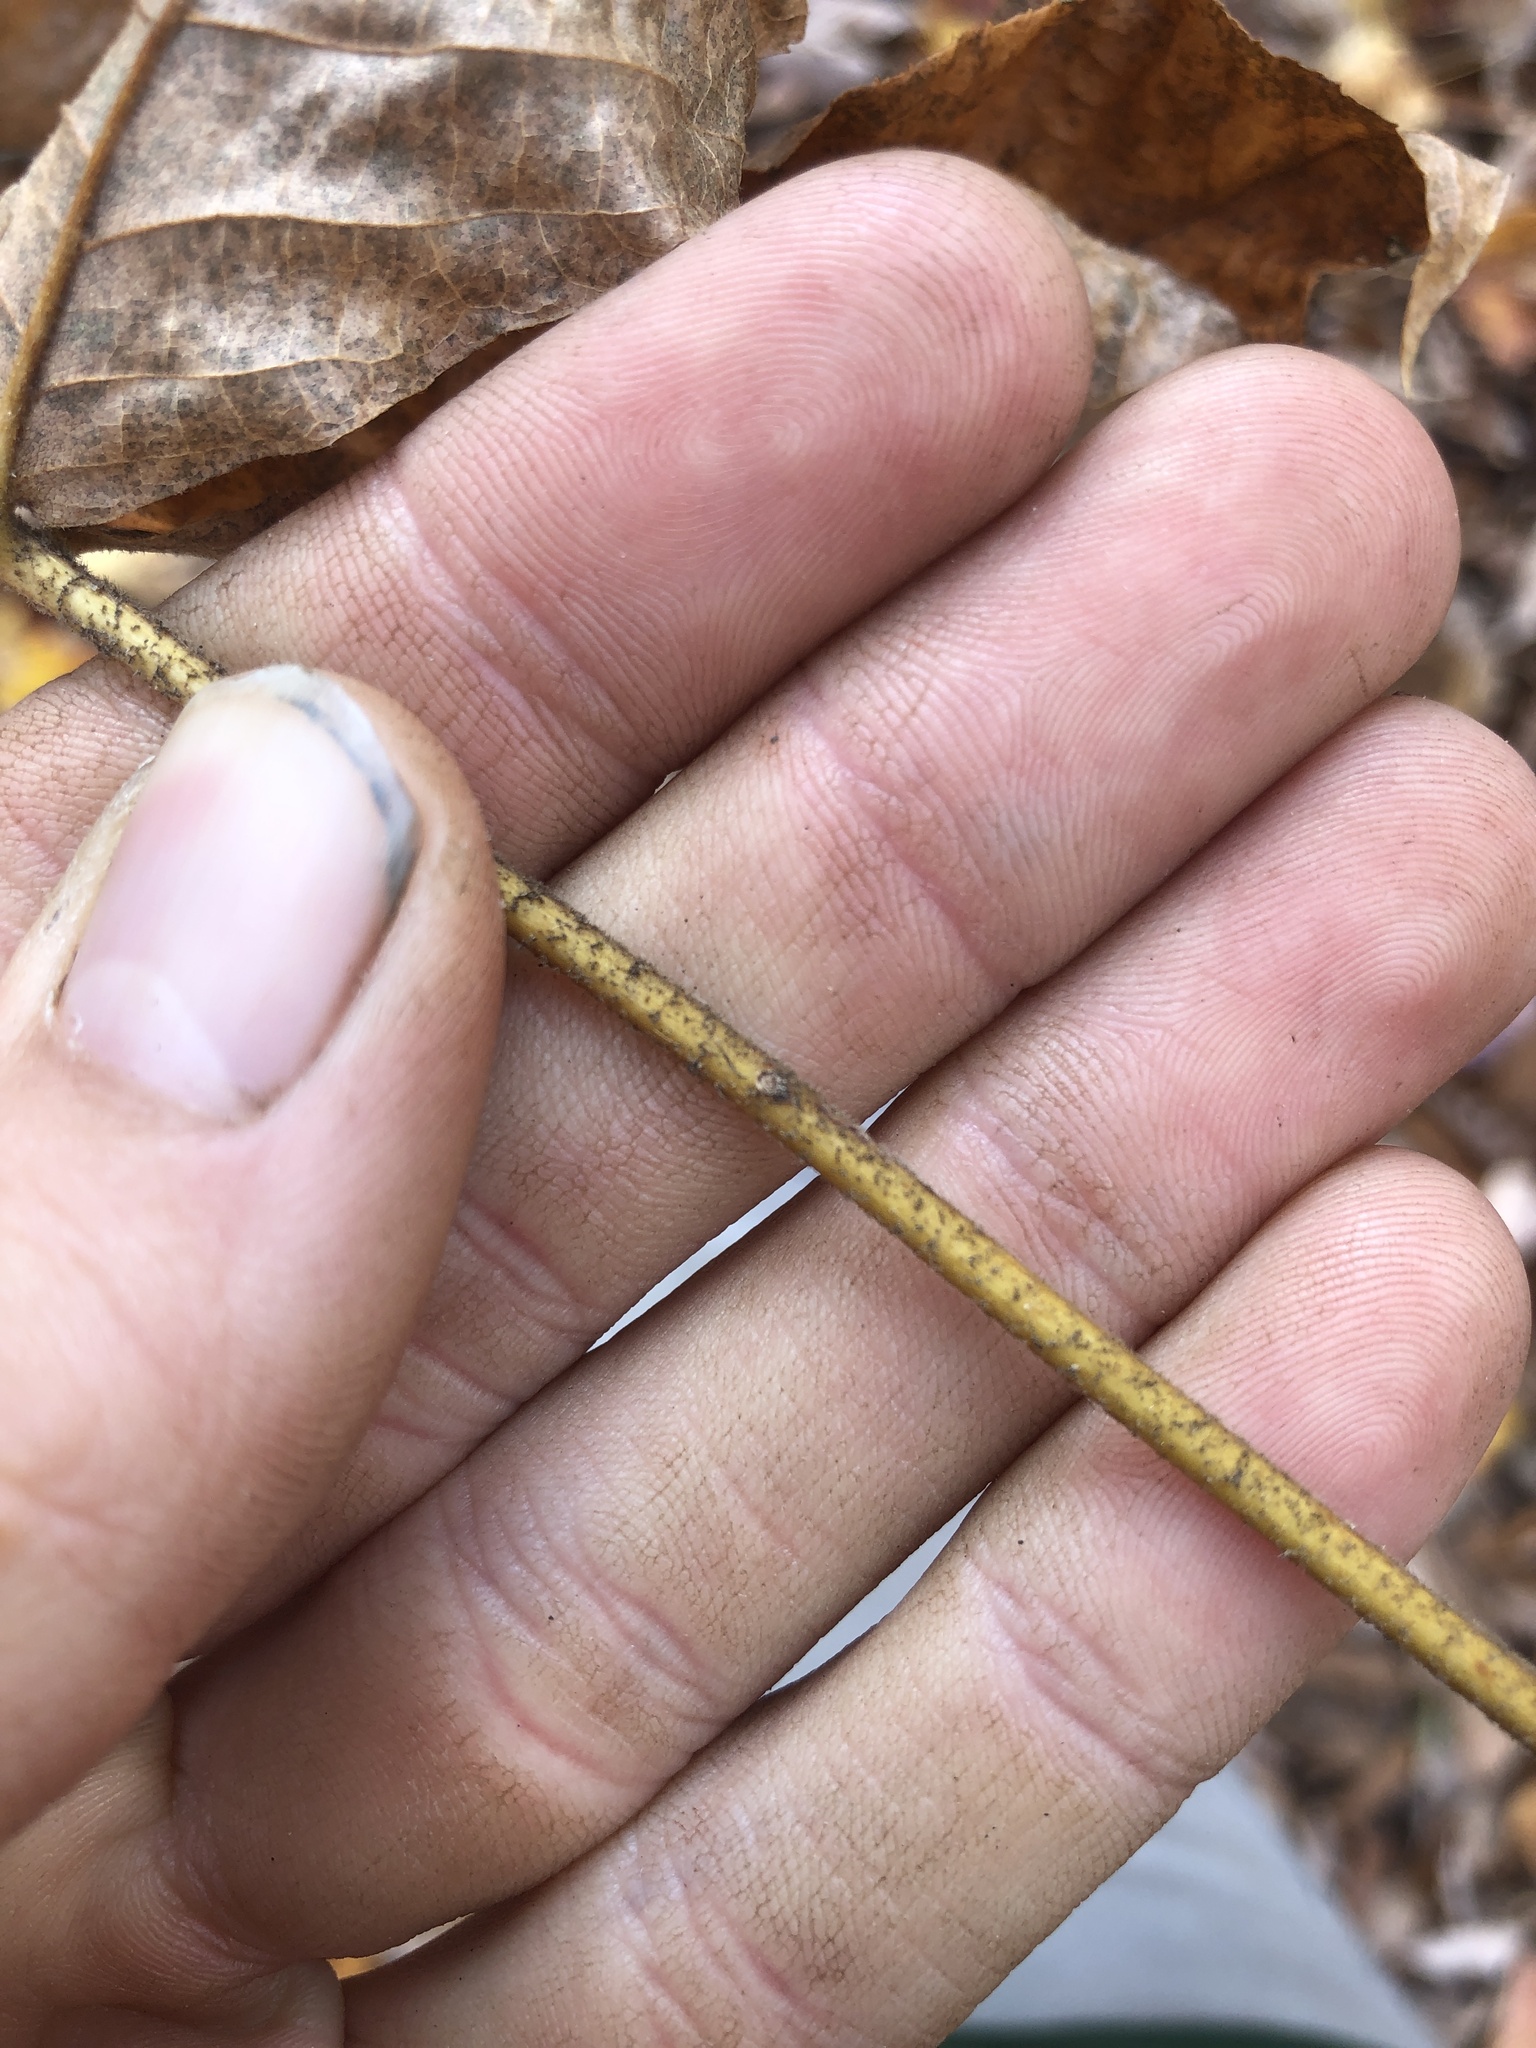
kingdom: Plantae
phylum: Tracheophyta
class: Magnoliopsida
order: Fagales
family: Juglandaceae
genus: Carya
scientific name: Carya alba
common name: Mockernut hickory
